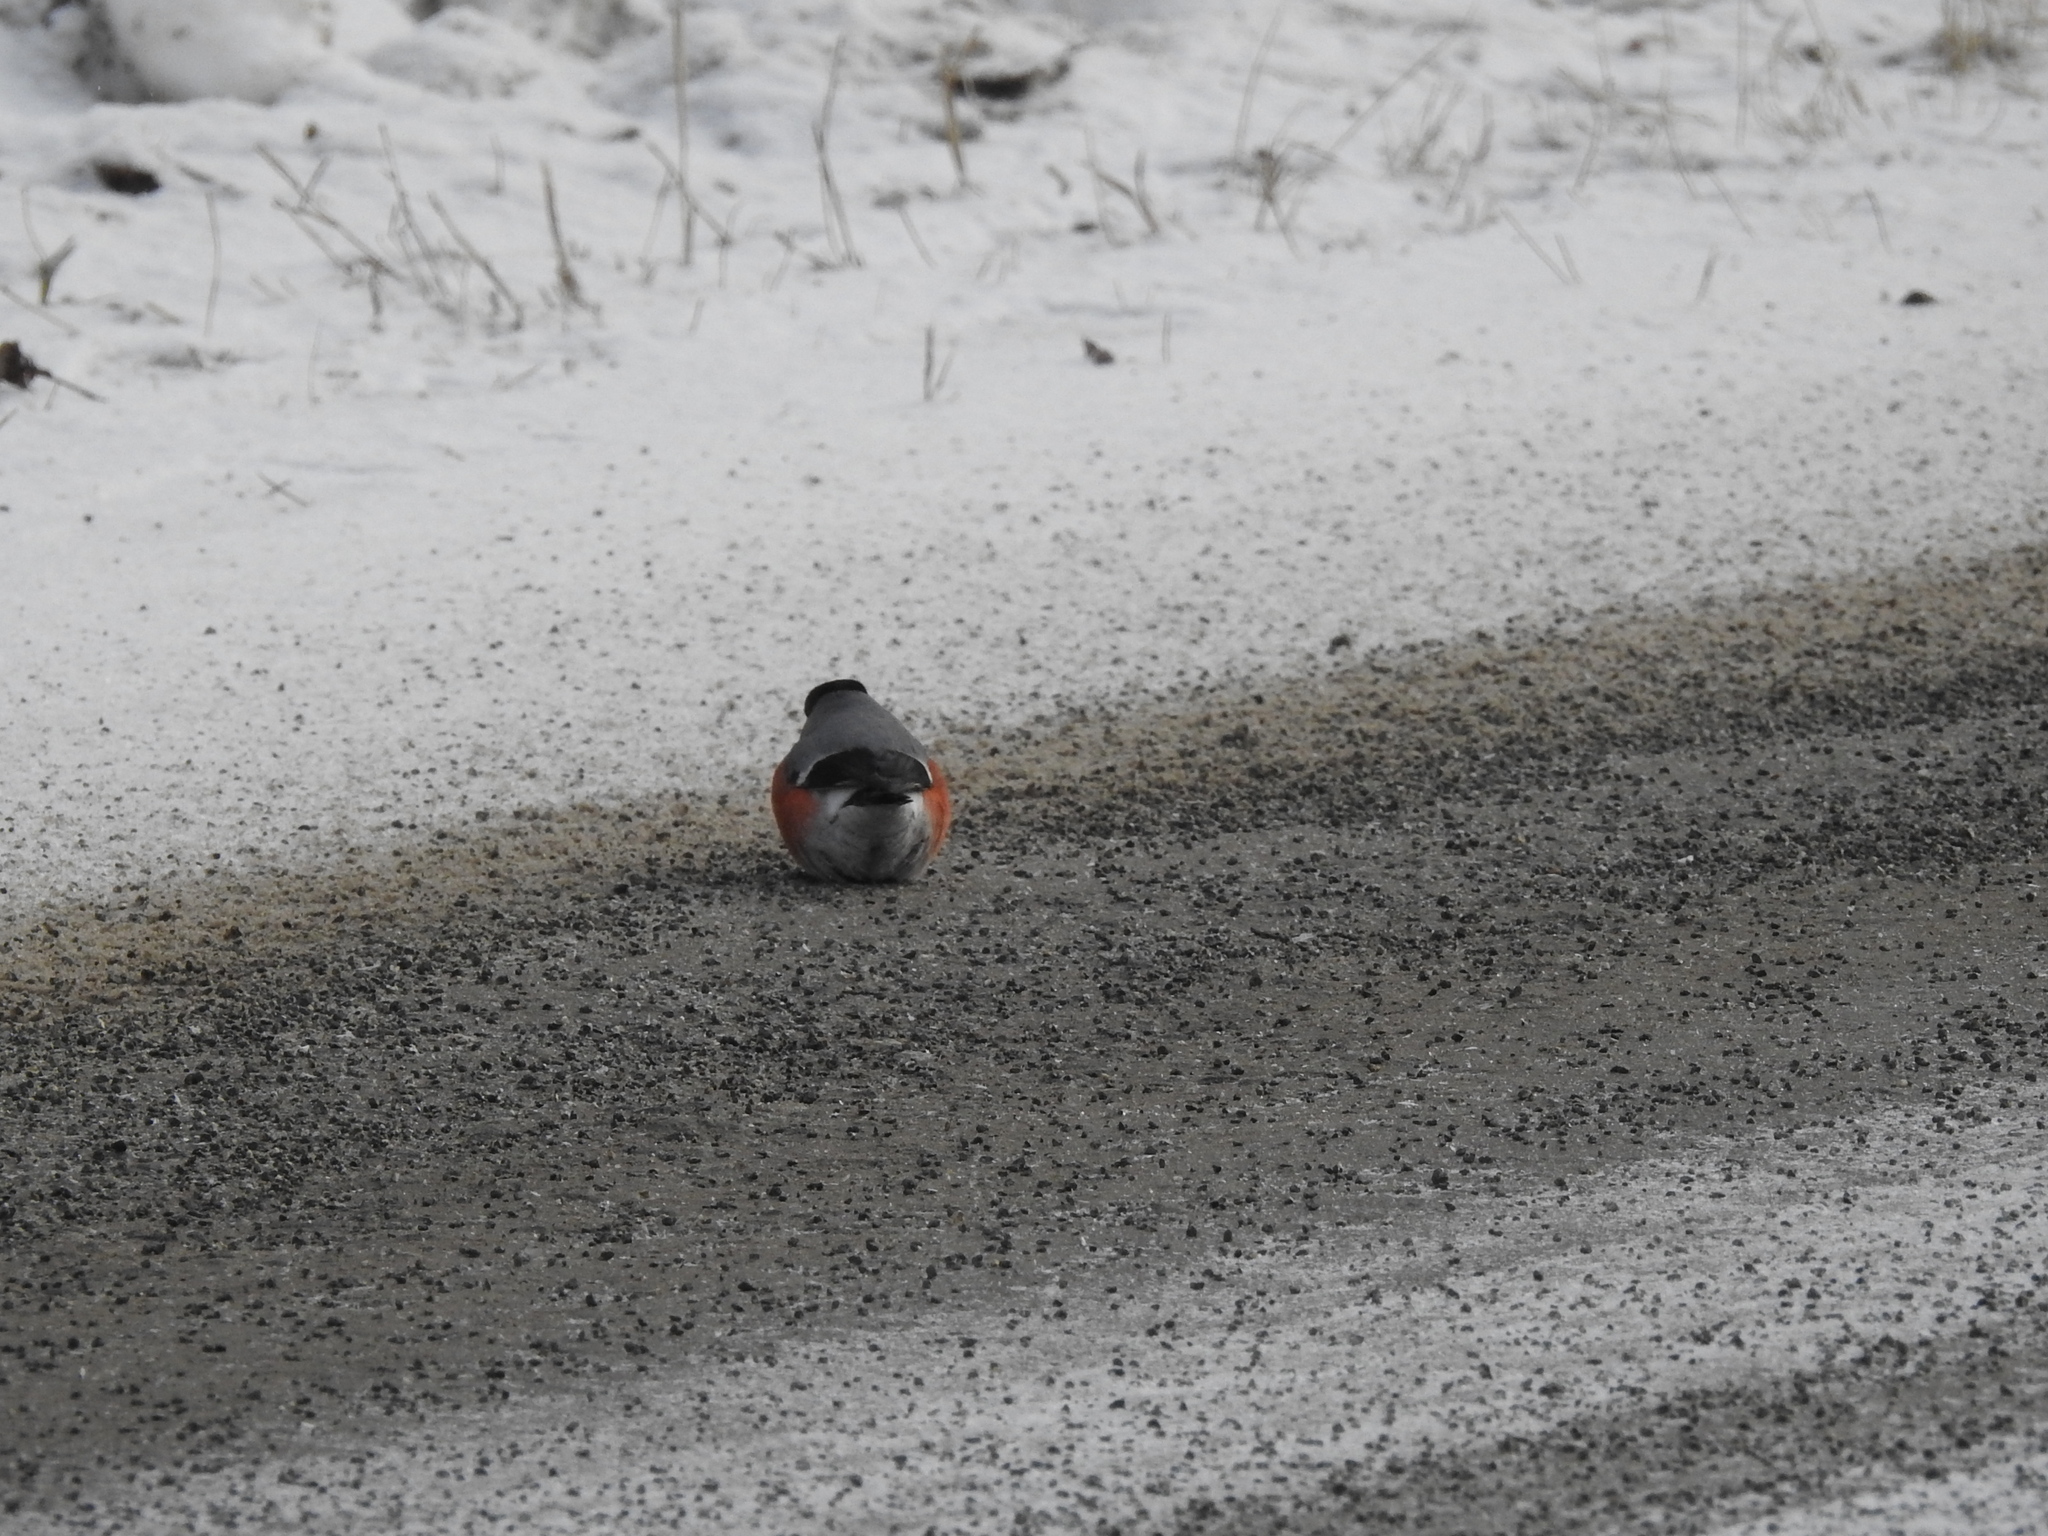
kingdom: Animalia
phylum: Chordata
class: Aves
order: Passeriformes
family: Fringillidae
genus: Pyrrhula
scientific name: Pyrrhula pyrrhula
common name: Eurasian bullfinch
